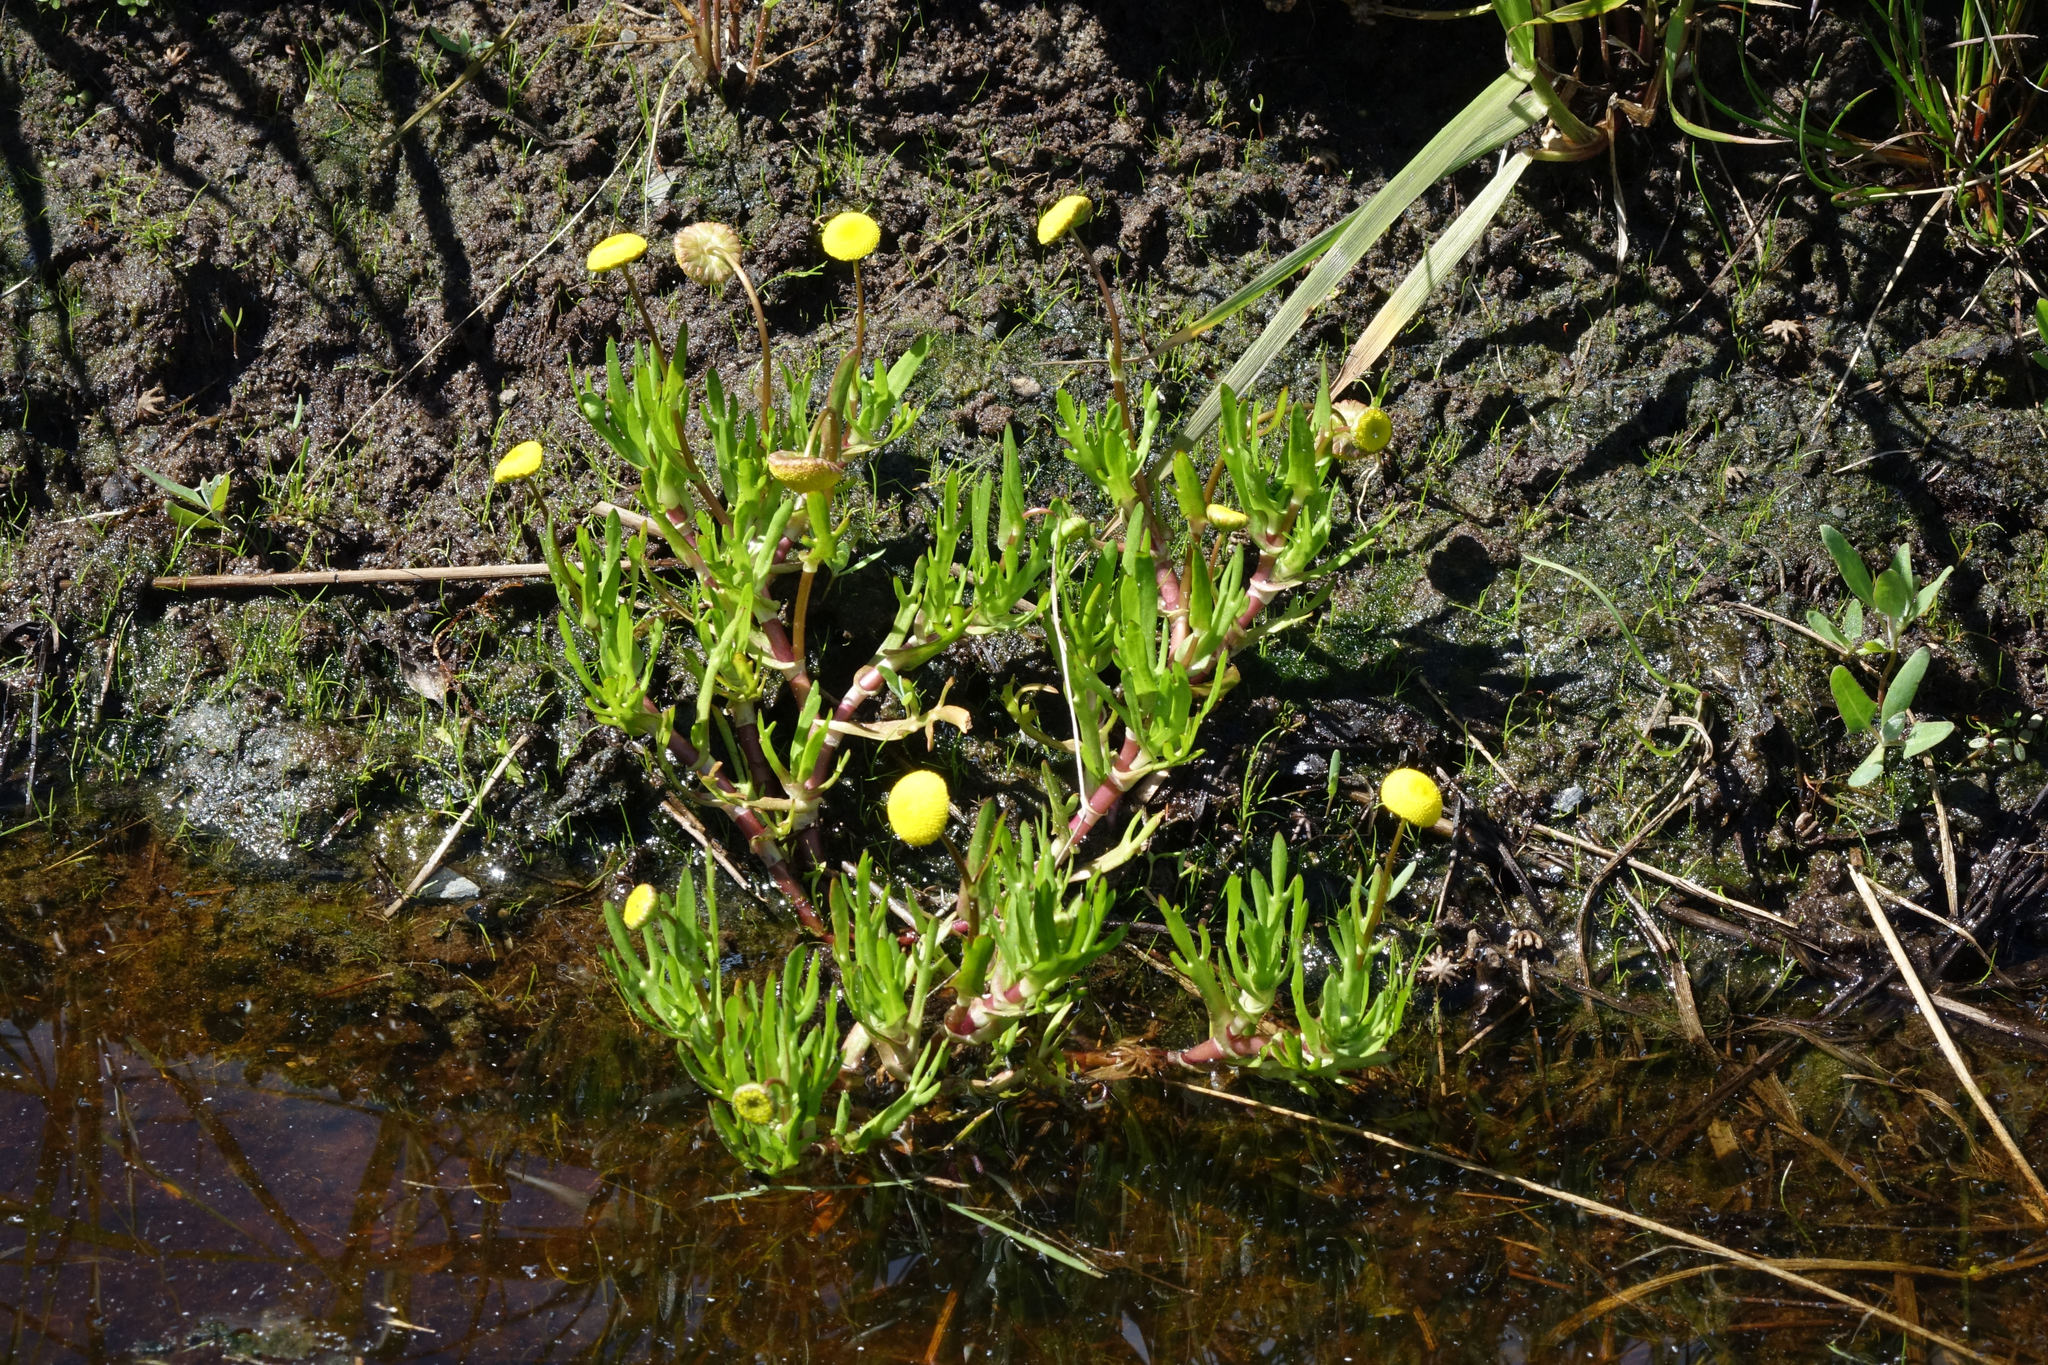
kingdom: Plantae
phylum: Tracheophyta
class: Magnoliopsida
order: Asterales
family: Asteraceae
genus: Cotula
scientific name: Cotula coronopifolia
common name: Buttonweed
